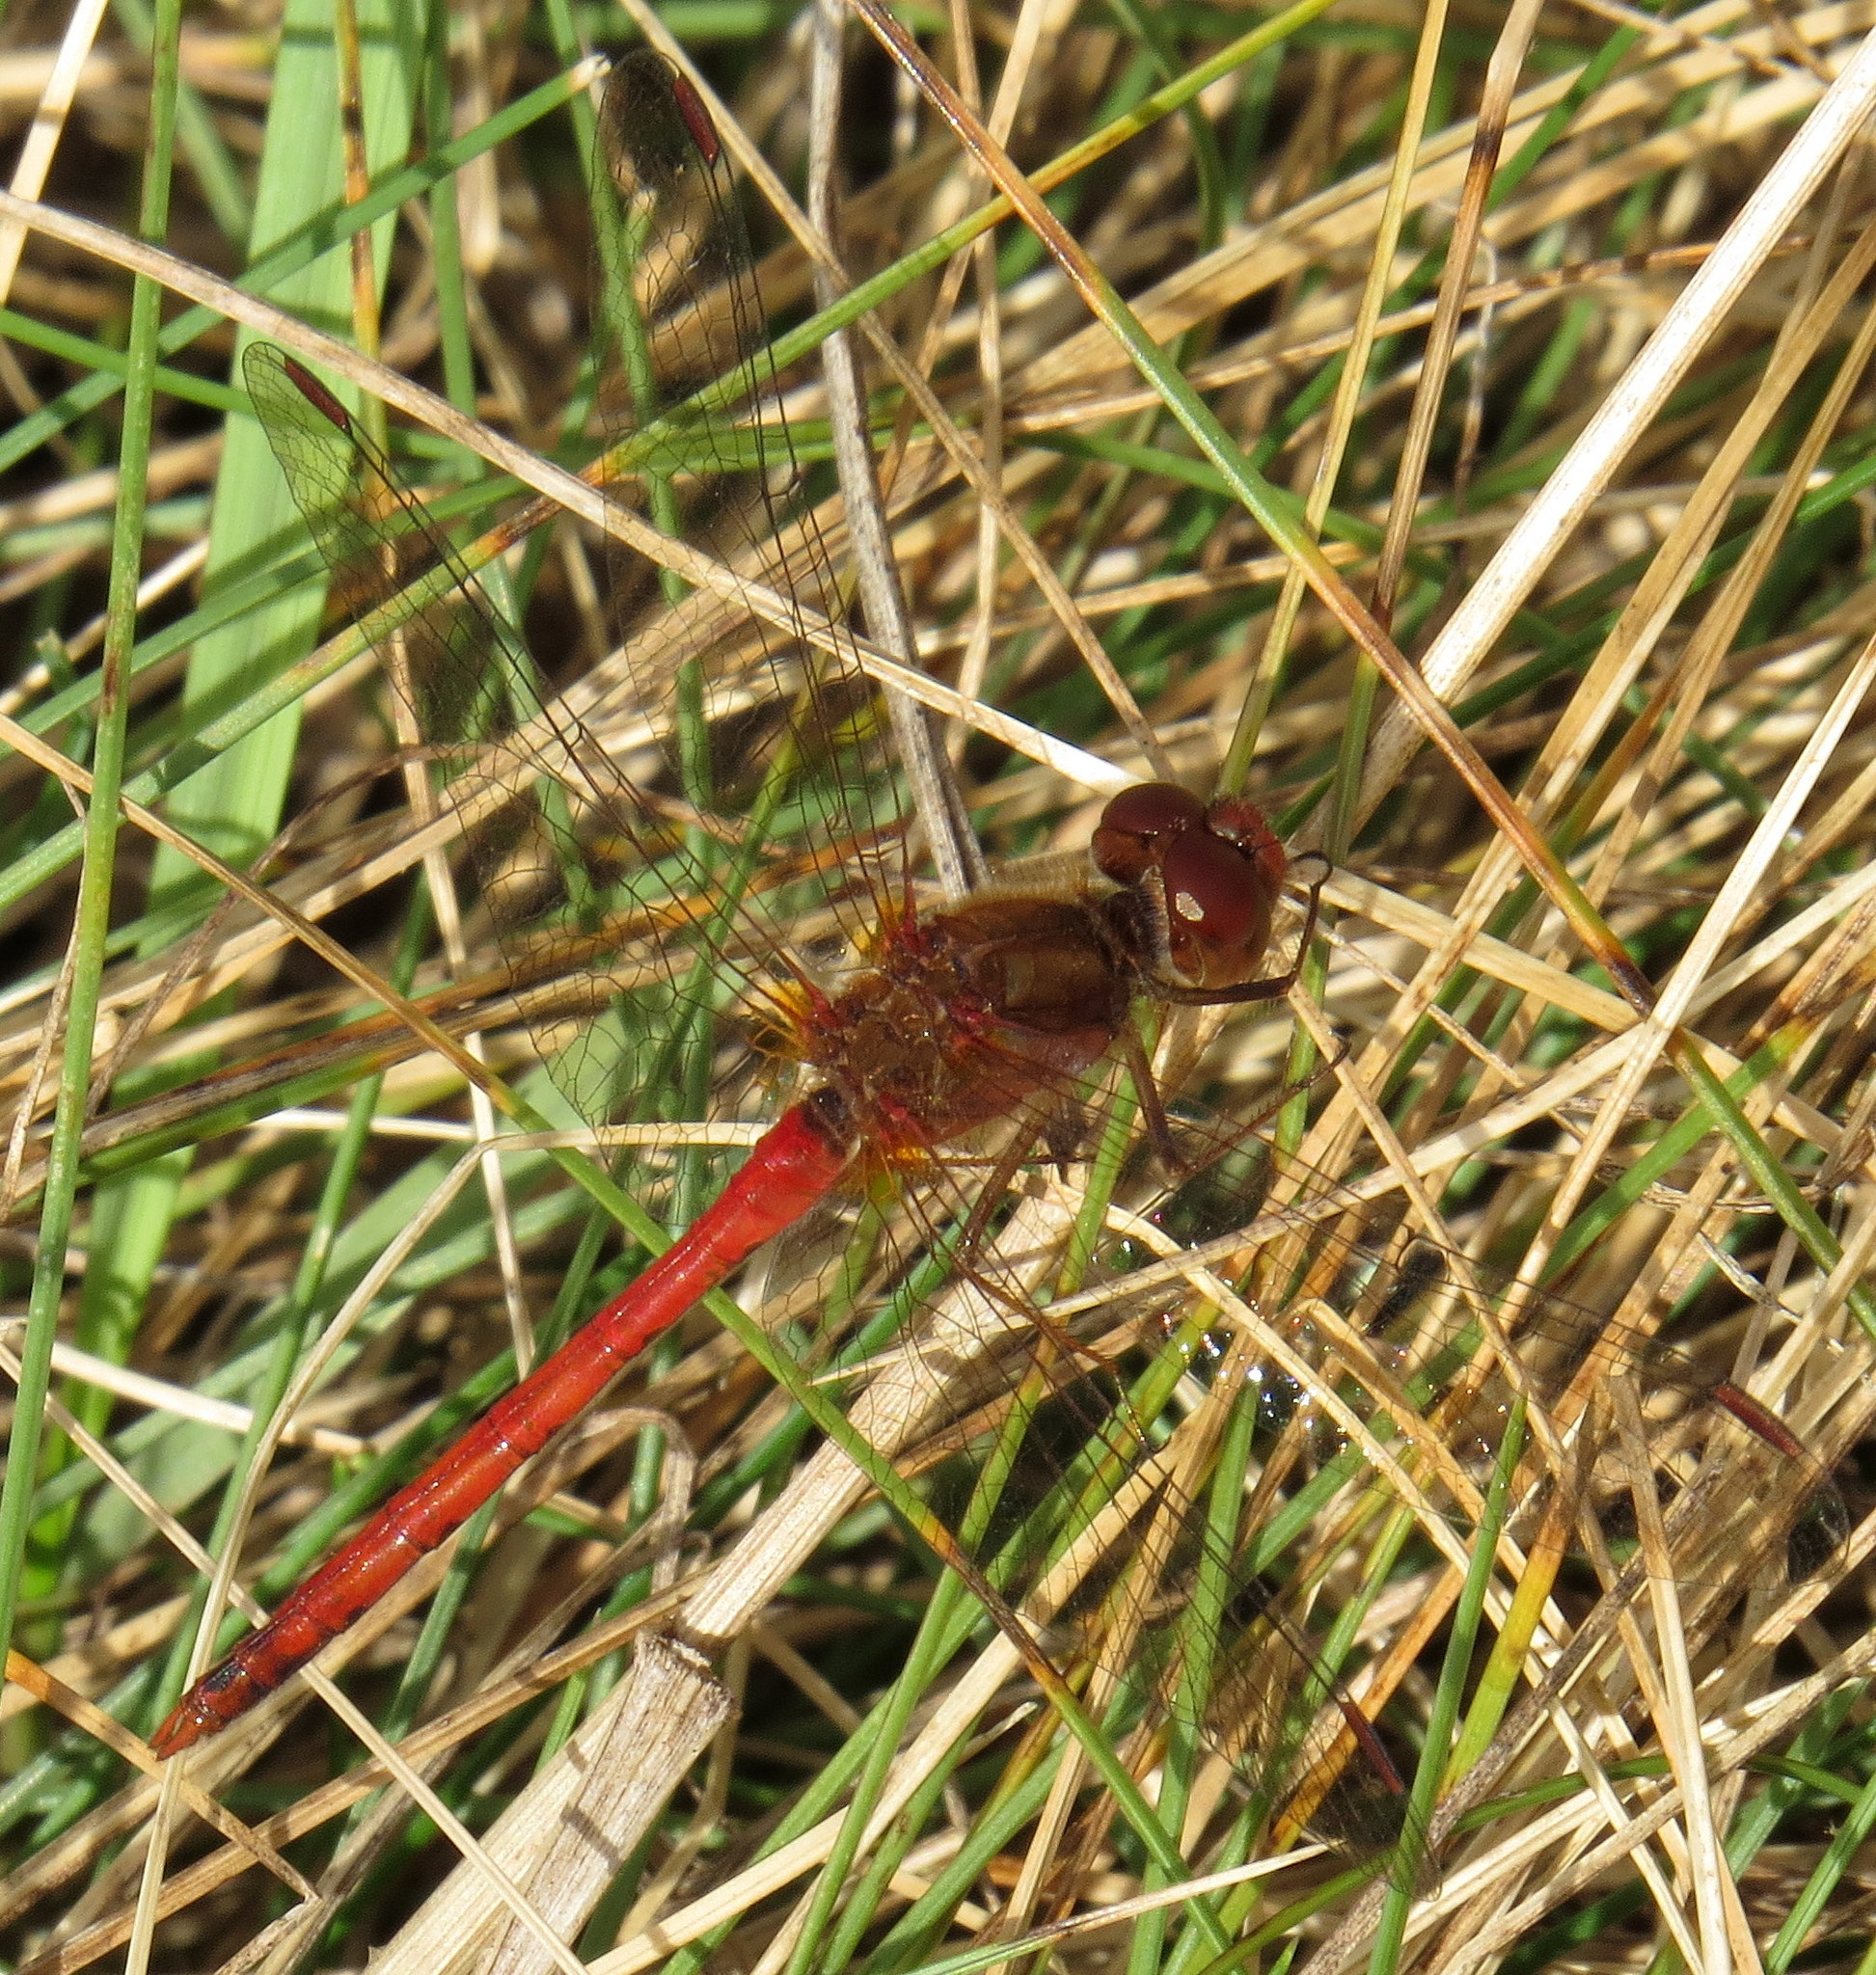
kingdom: Animalia
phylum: Arthropoda
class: Insecta
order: Odonata
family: Libellulidae
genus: Sympetrum
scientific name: Sympetrum vicinum
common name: Autumn meadowhawk
